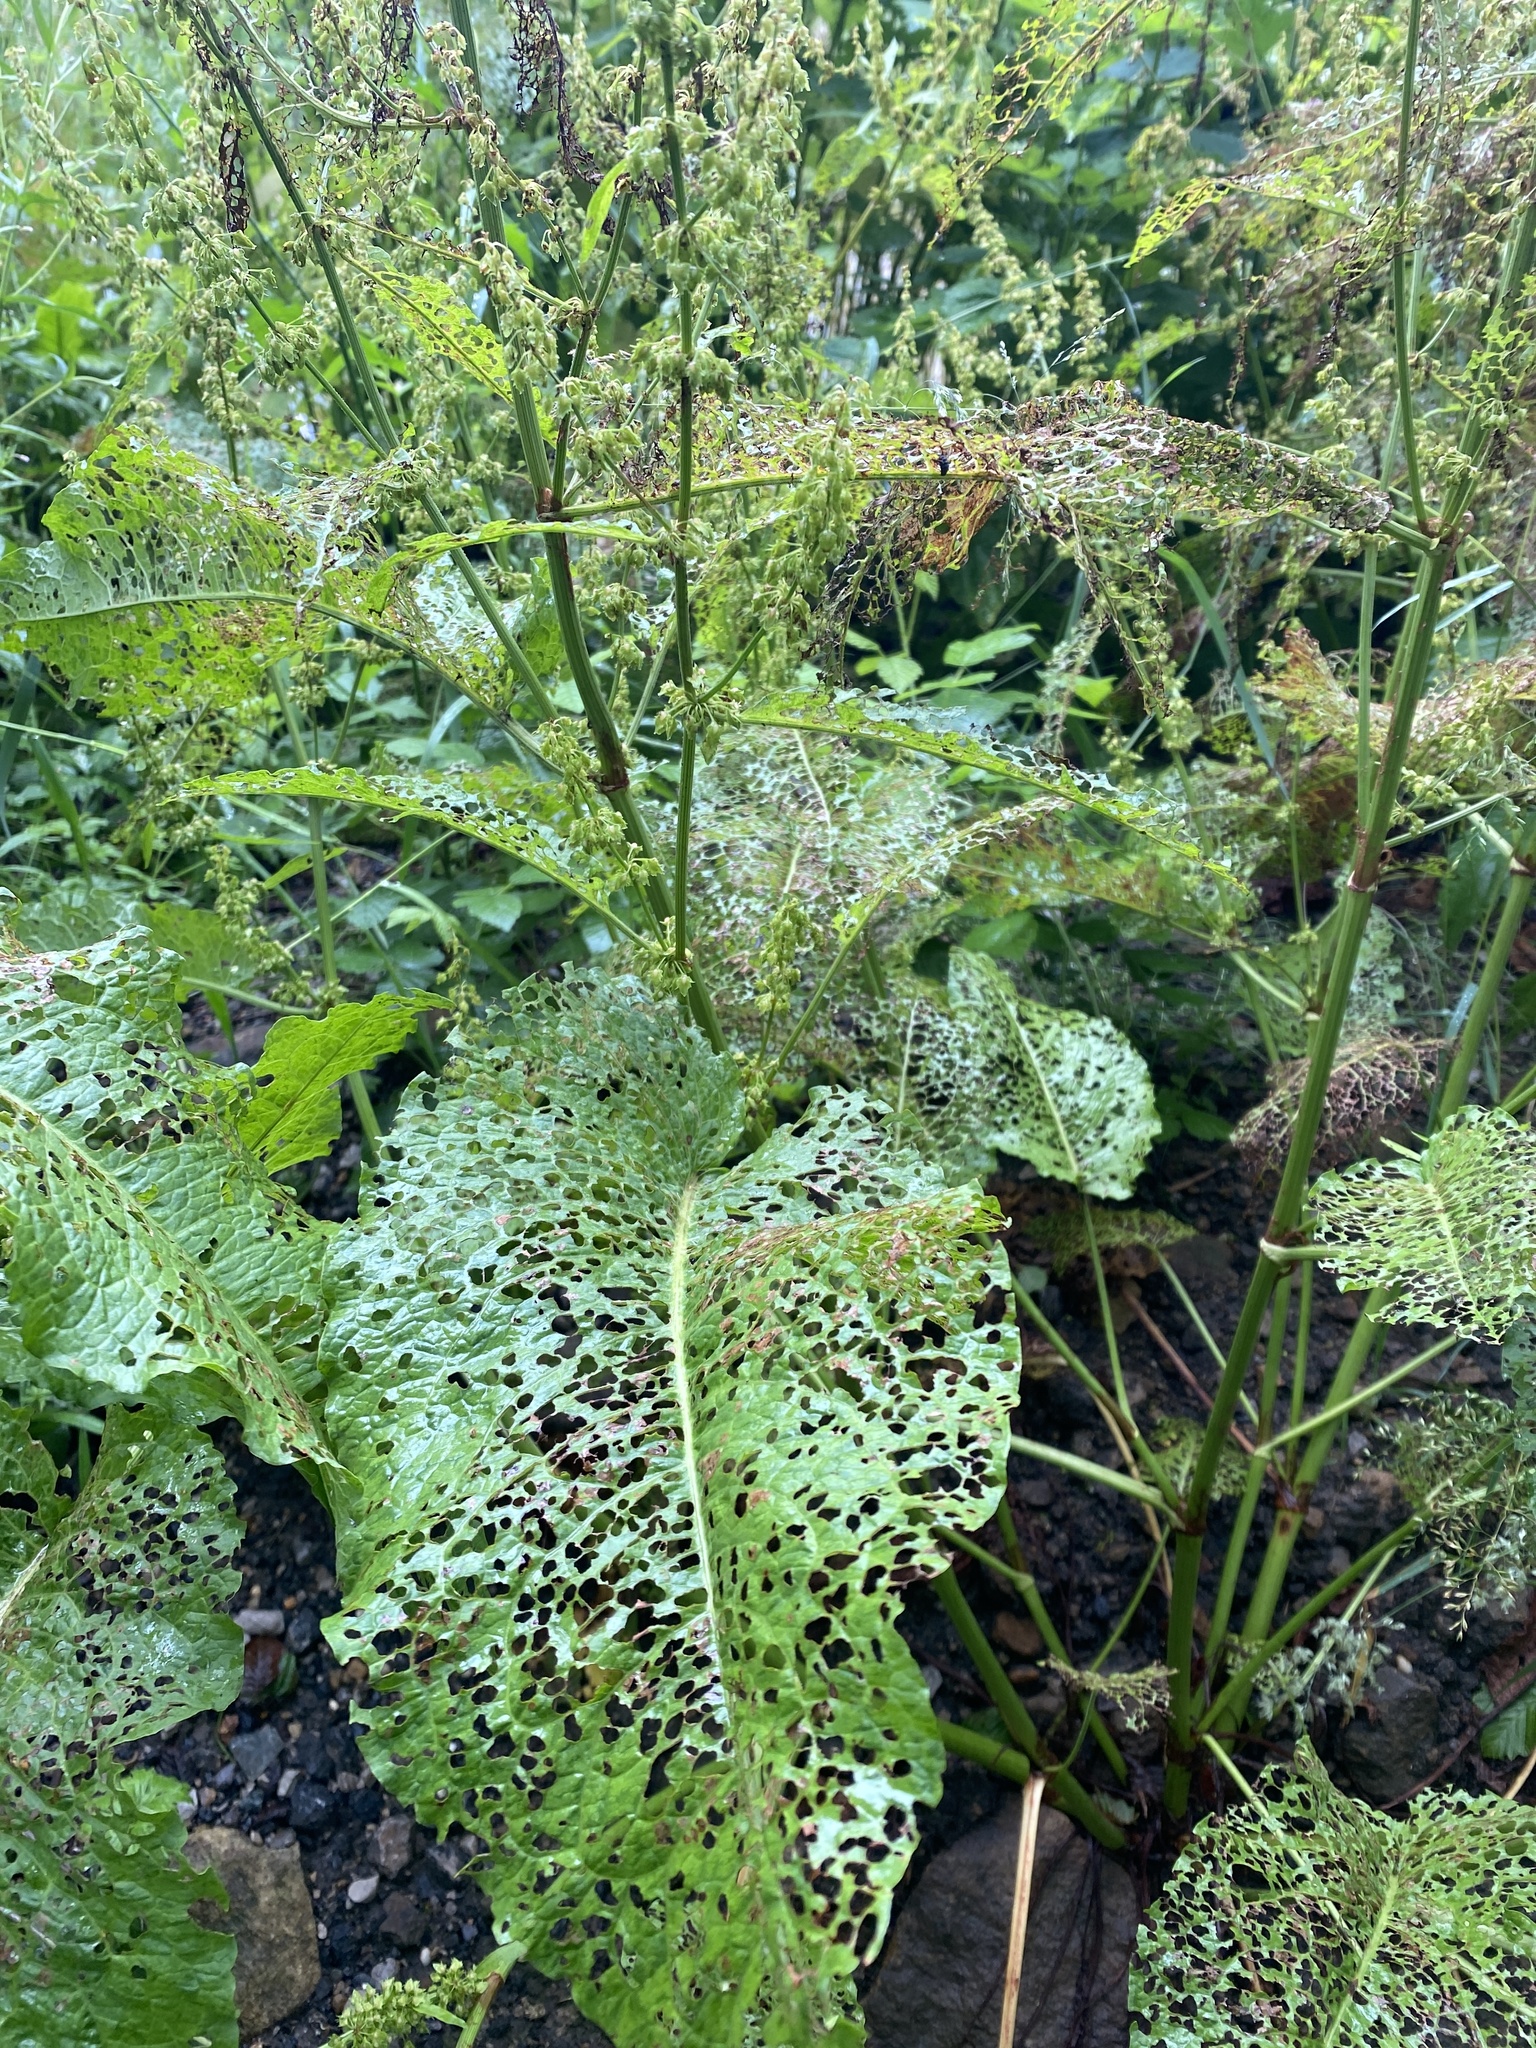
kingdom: Plantae
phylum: Tracheophyta
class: Magnoliopsida
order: Caryophyllales
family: Polygonaceae
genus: Rumex
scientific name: Rumex obtusifolius
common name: Bitter dock
